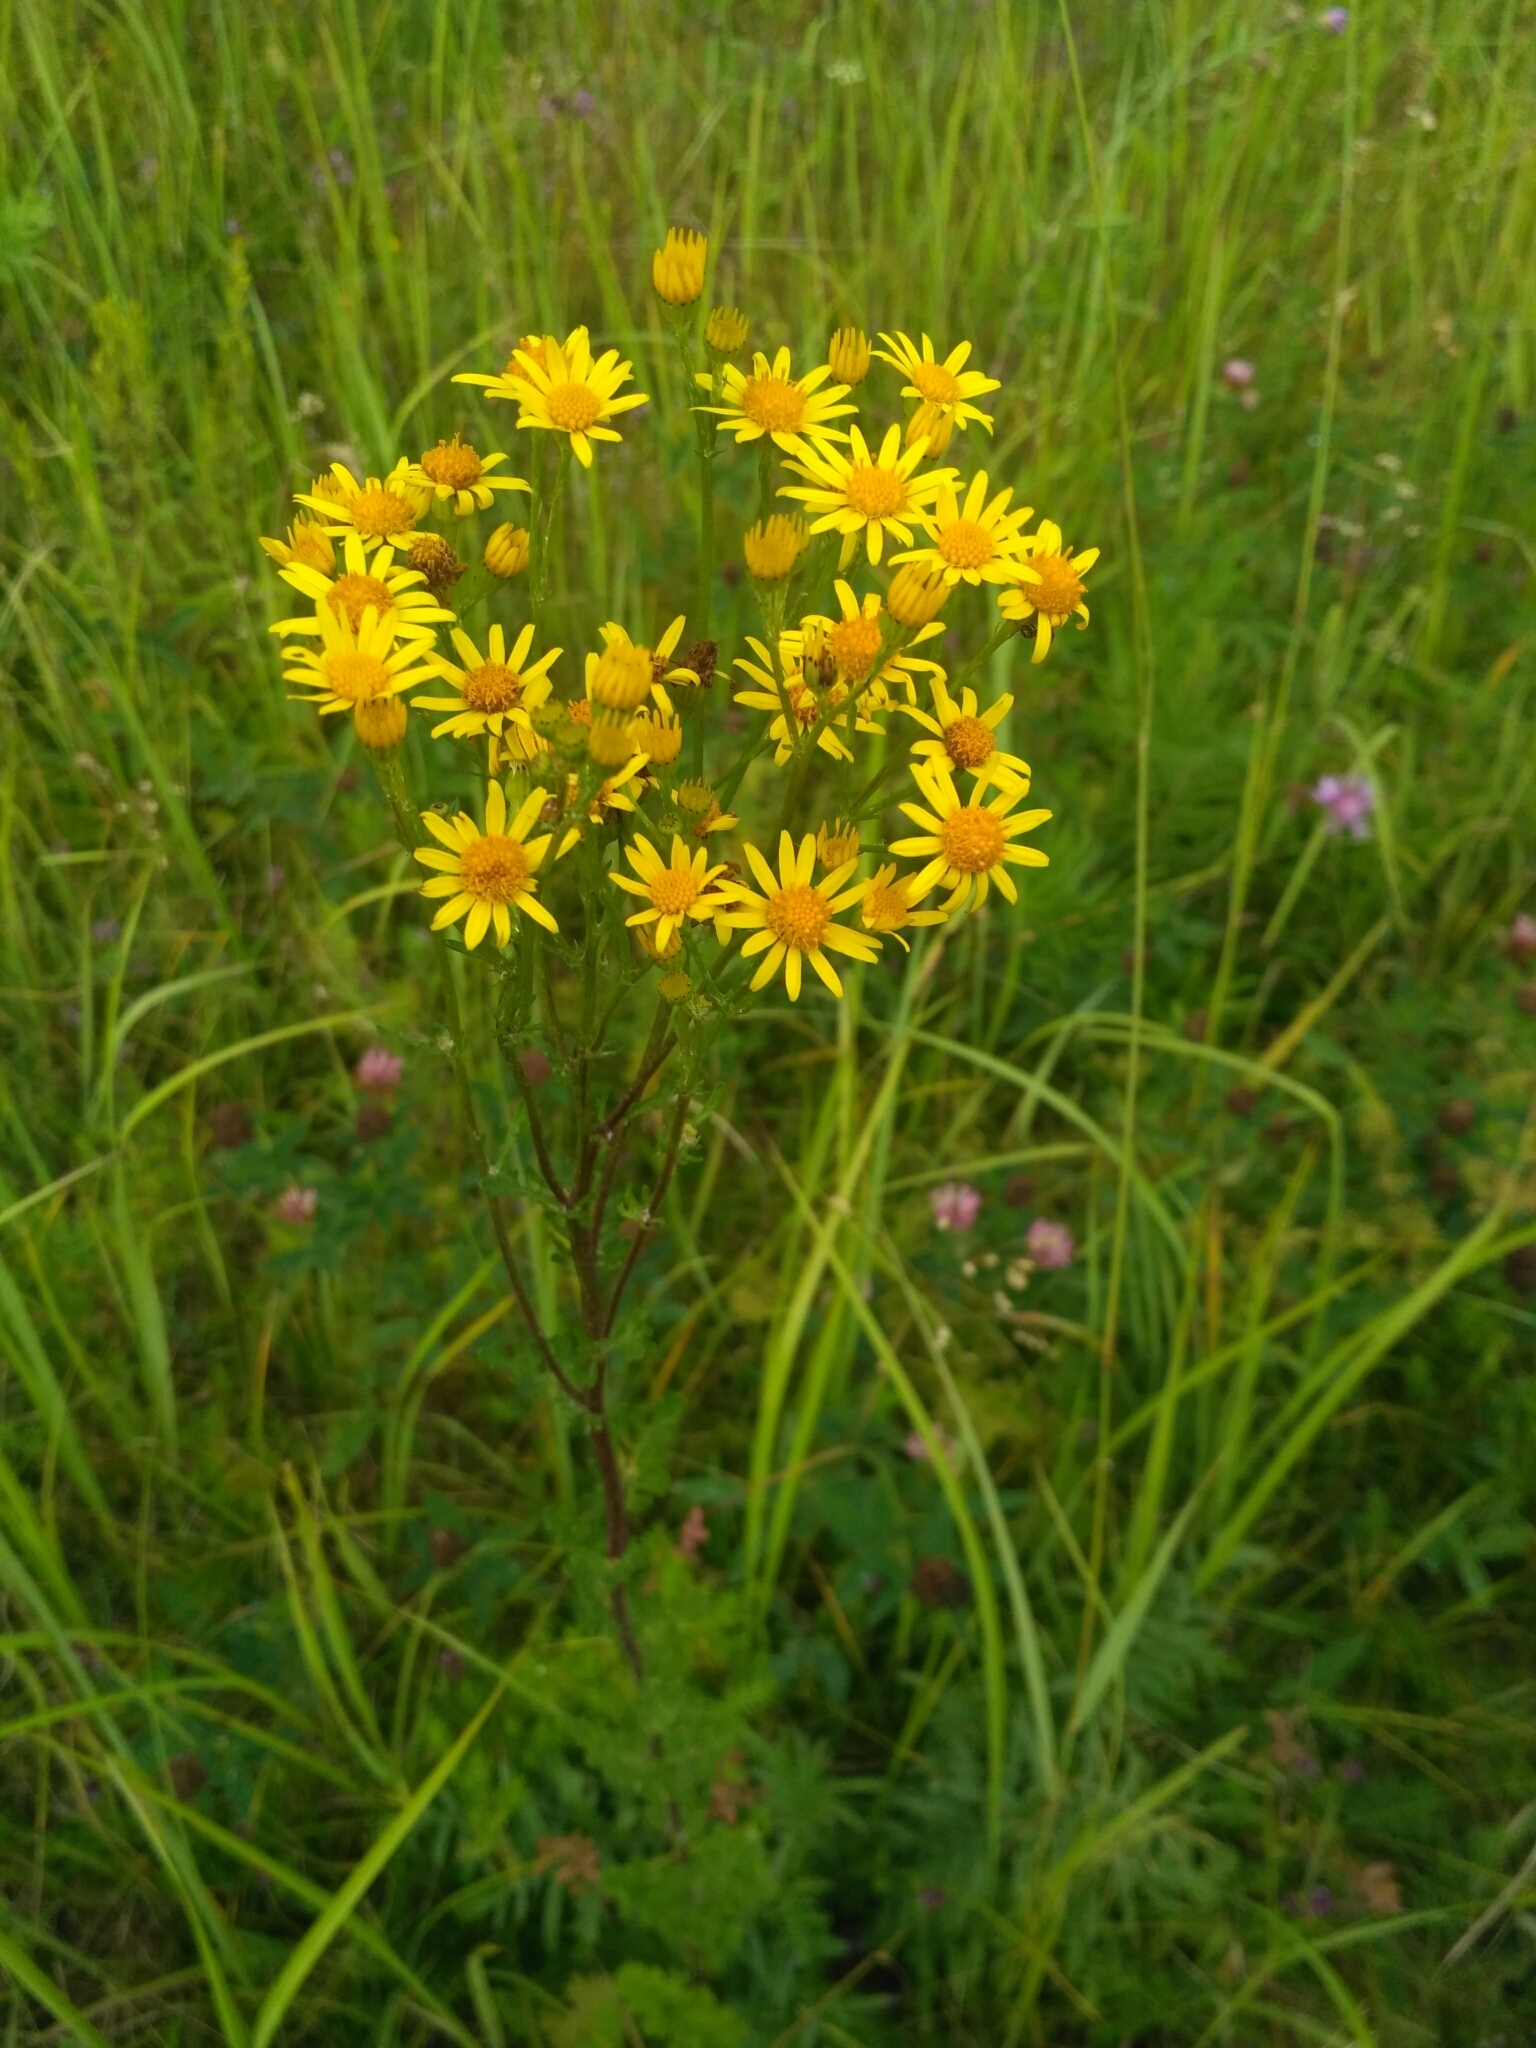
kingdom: Plantae
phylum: Tracheophyta
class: Magnoliopsida
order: Asterales
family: Asteraceae
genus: Jacobaea
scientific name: Jacobaea vulgaris
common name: Stinking willie
